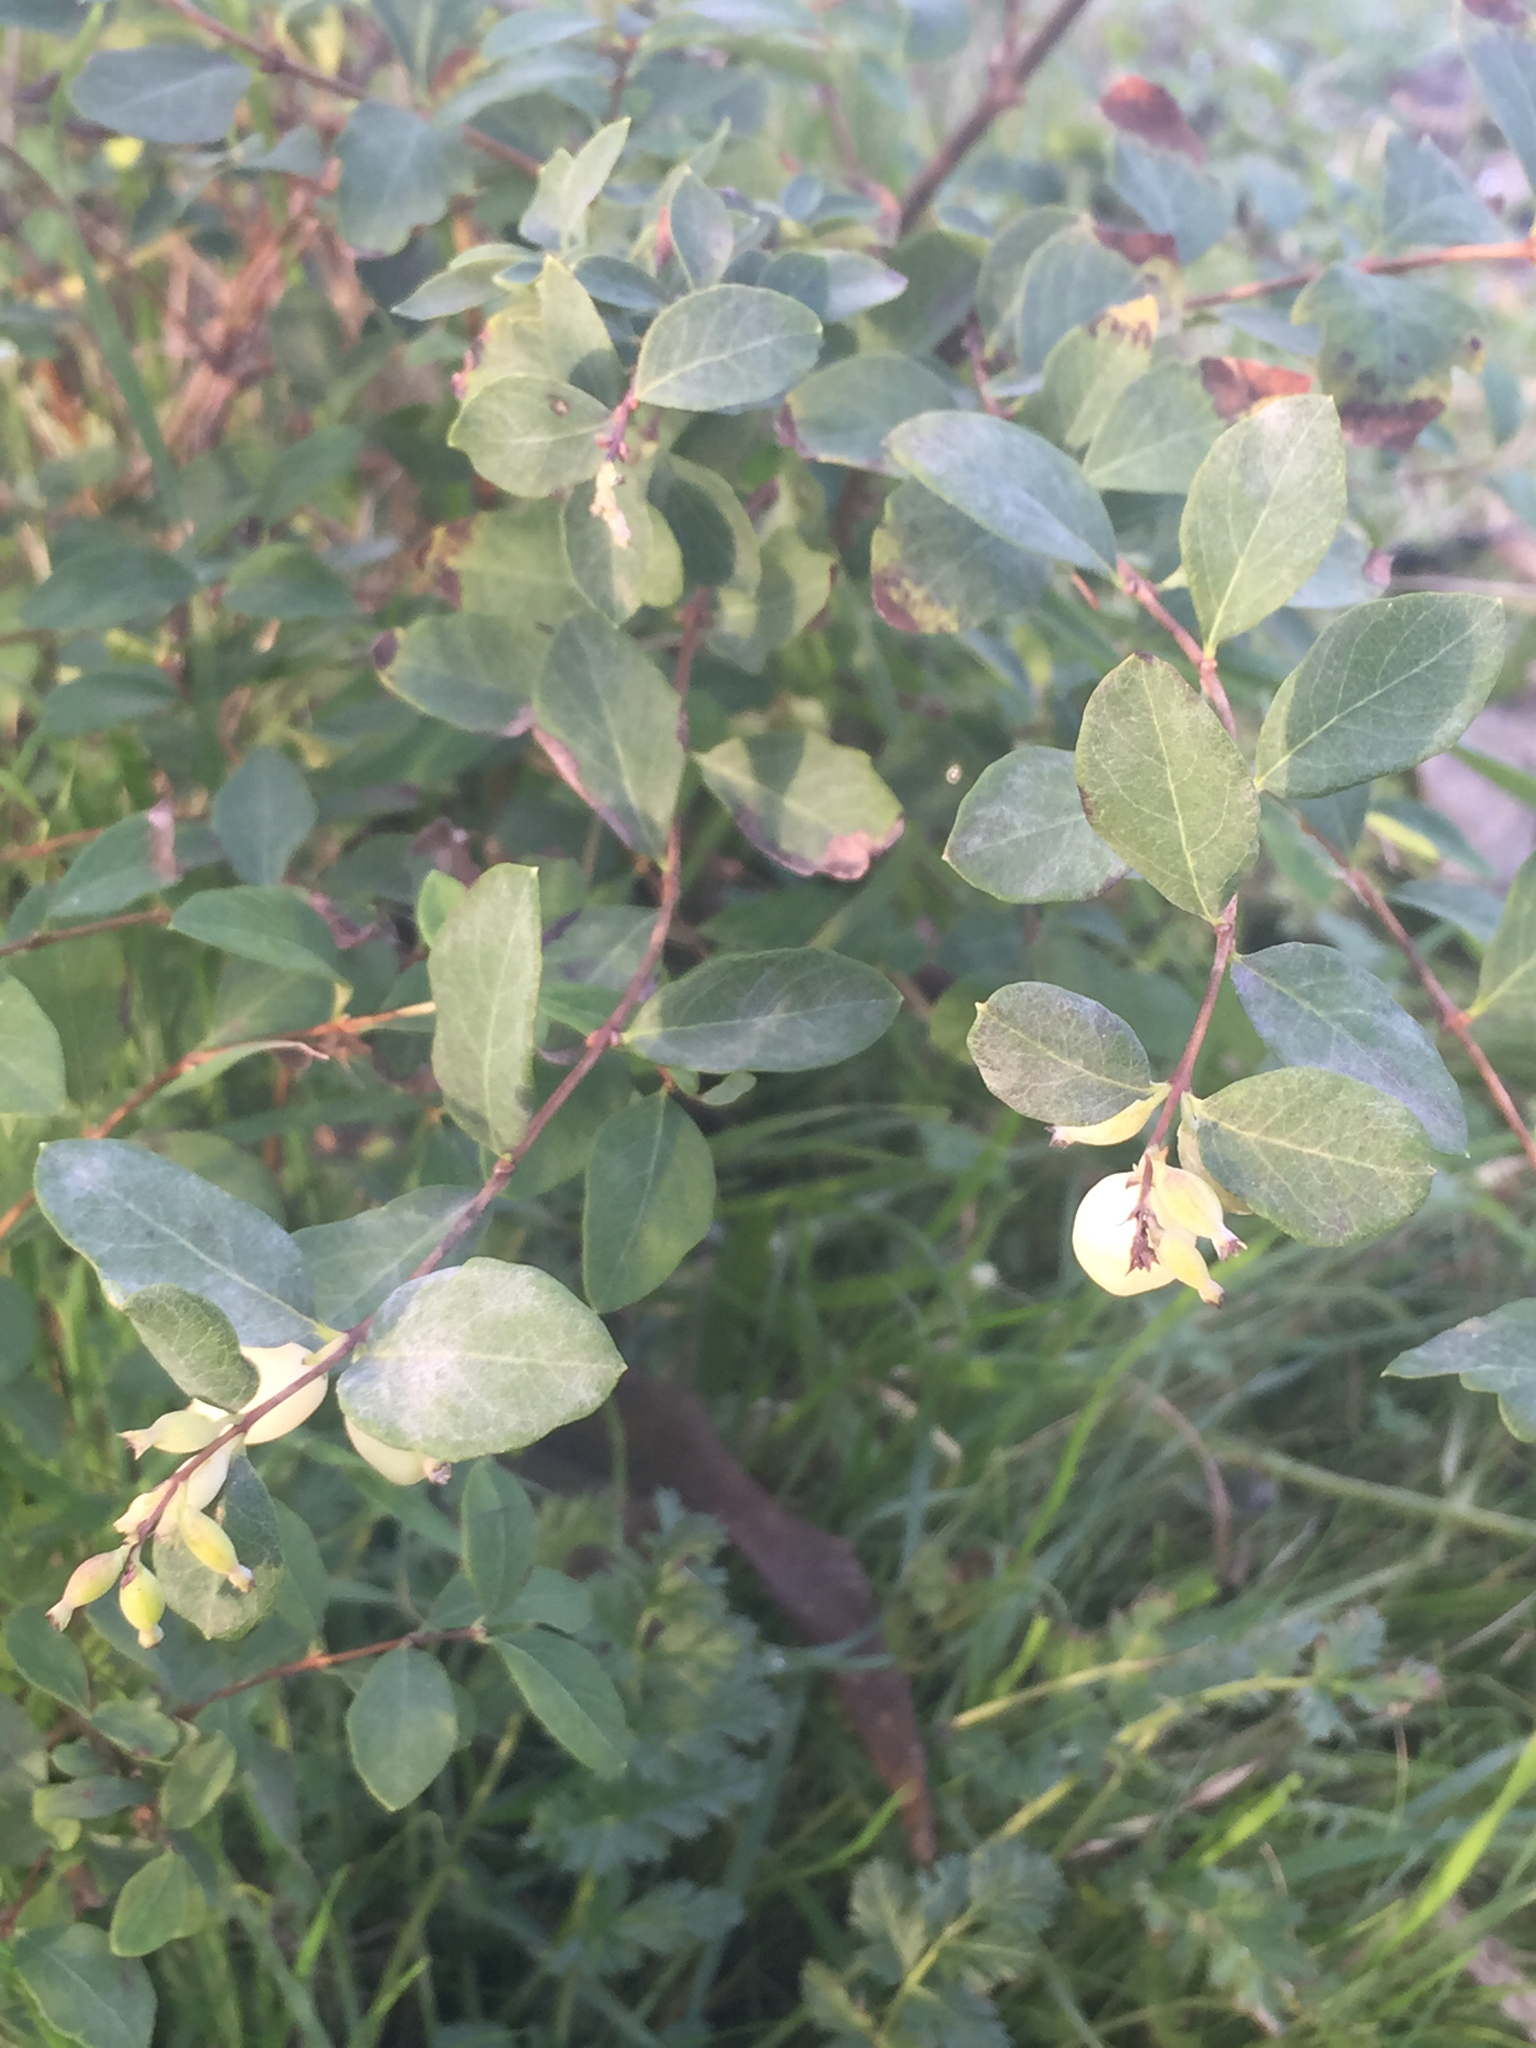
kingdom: Plantae
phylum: Tracheophyta
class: Magnoliopsida
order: Dipsacales
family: Caprifoliaceae
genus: Symphoricarpos
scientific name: Symphoricarpos albus
